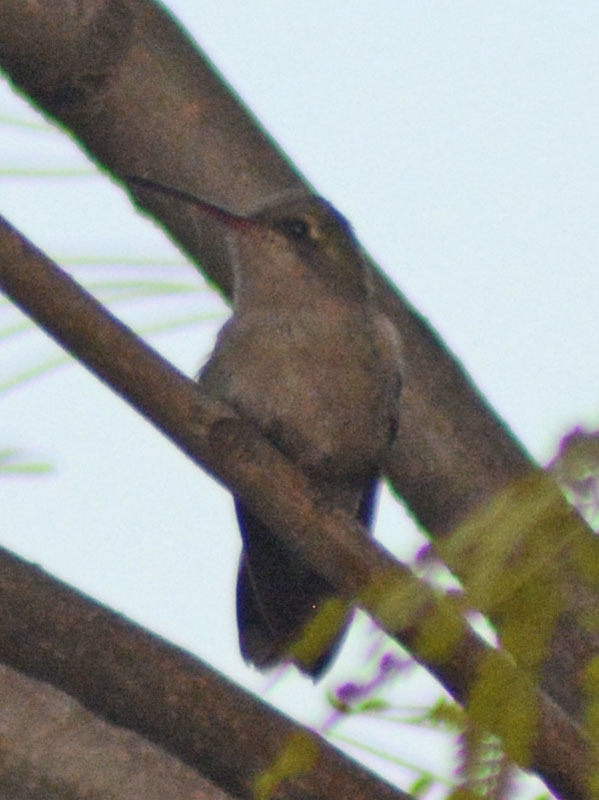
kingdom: Animalia
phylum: Chordata
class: Aves
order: Apodiformes
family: Trochilidae
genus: Cynanthus
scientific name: Cynanthus latirostris
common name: Broad-billed hummingbird
